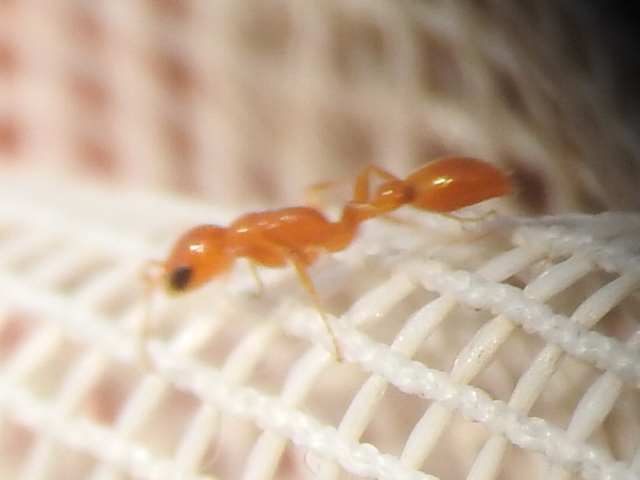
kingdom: Animalia
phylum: Arthropoda
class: Insecta
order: Hymenoptera
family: Formicidae
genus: Pseudomyrmex
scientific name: Pseudomyrmex pallidus
